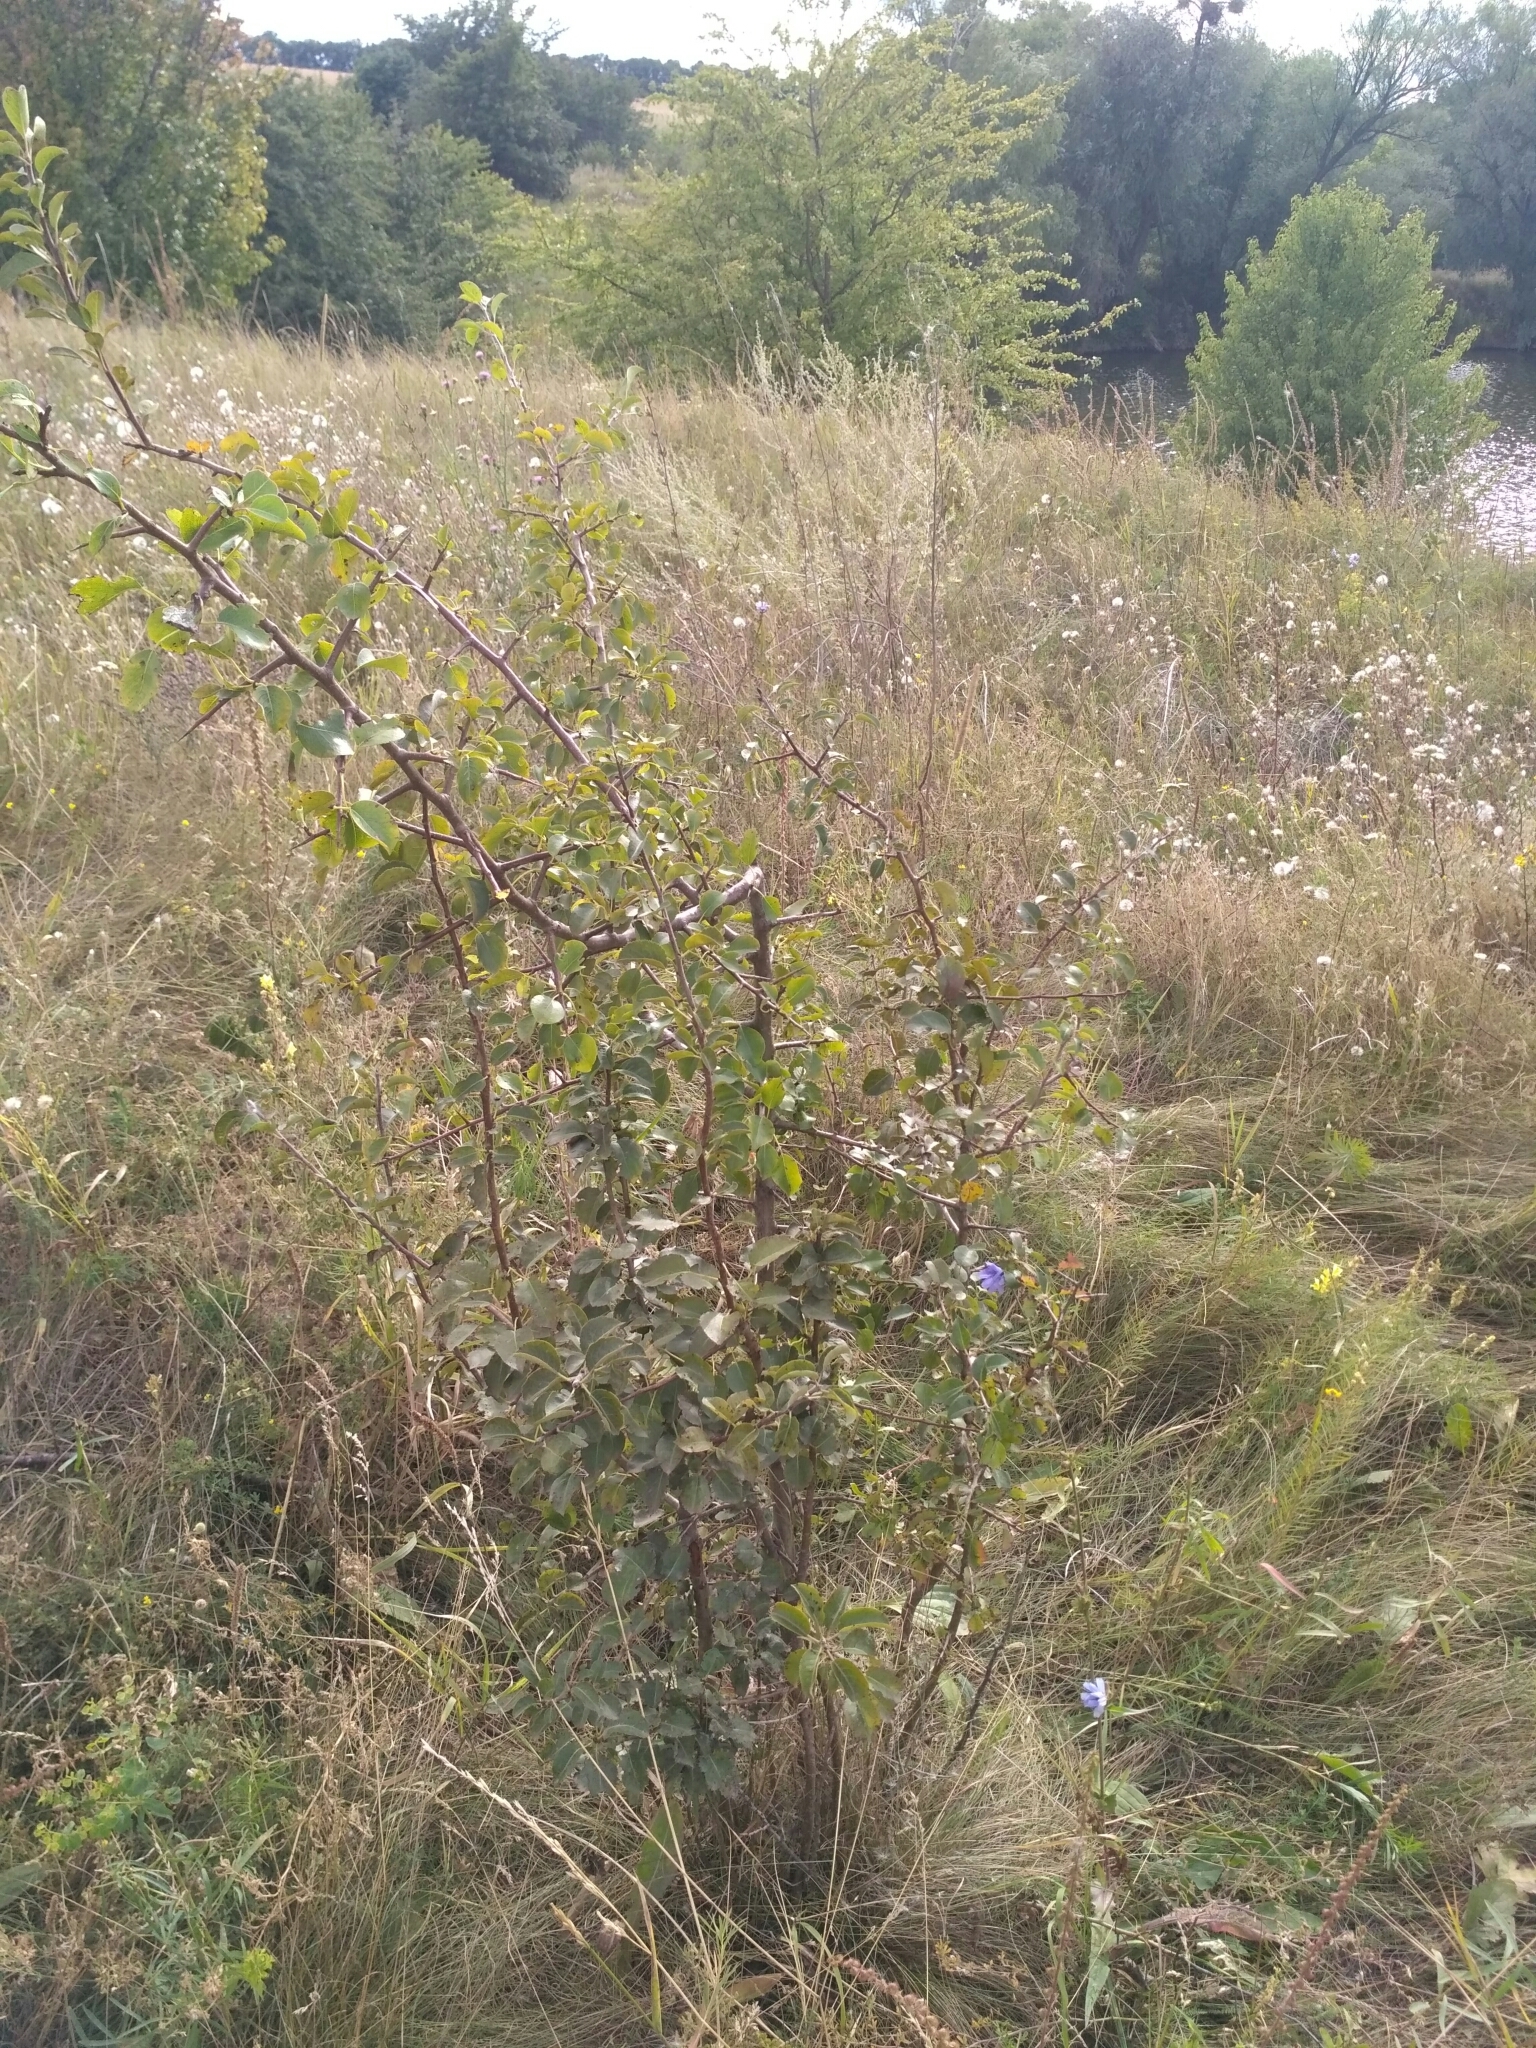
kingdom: Plantae
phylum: Tracheophyta
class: Magnoliopsida
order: Rosales
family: Rosaceae
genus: Pyrus
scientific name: Pyrus communis
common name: Pear
